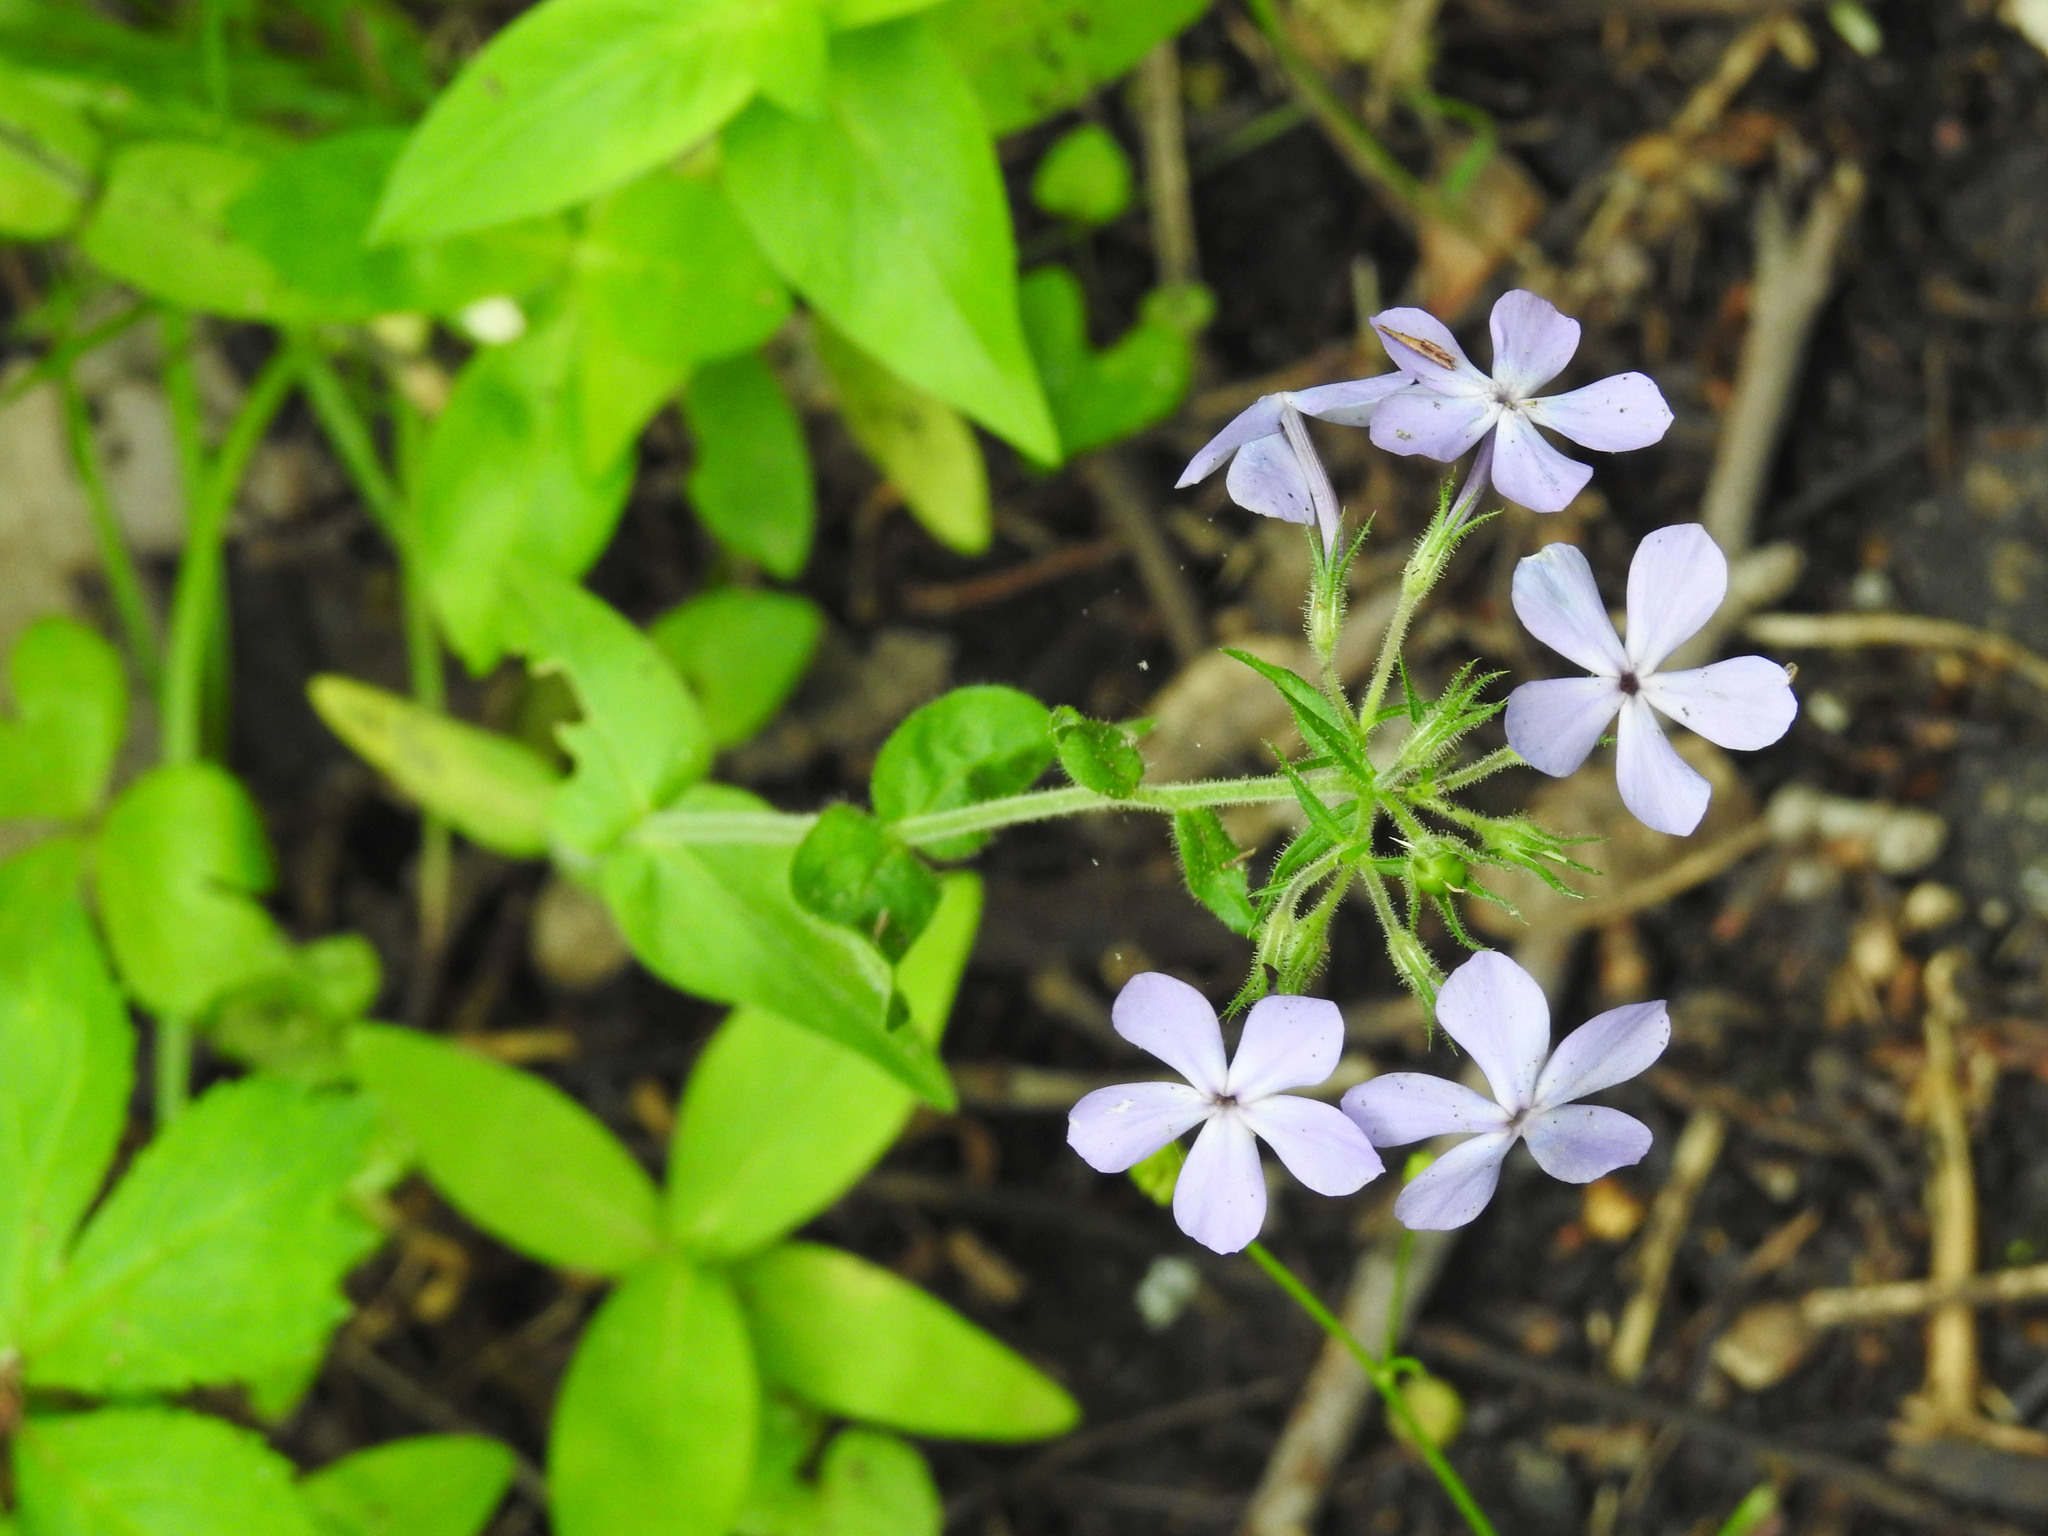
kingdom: Plantae
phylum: Tracheophyta
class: Magnoliopsida
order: Ericales
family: Polemoniaceae
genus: Phlox
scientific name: Phlox divaricata
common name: Blue phlox
